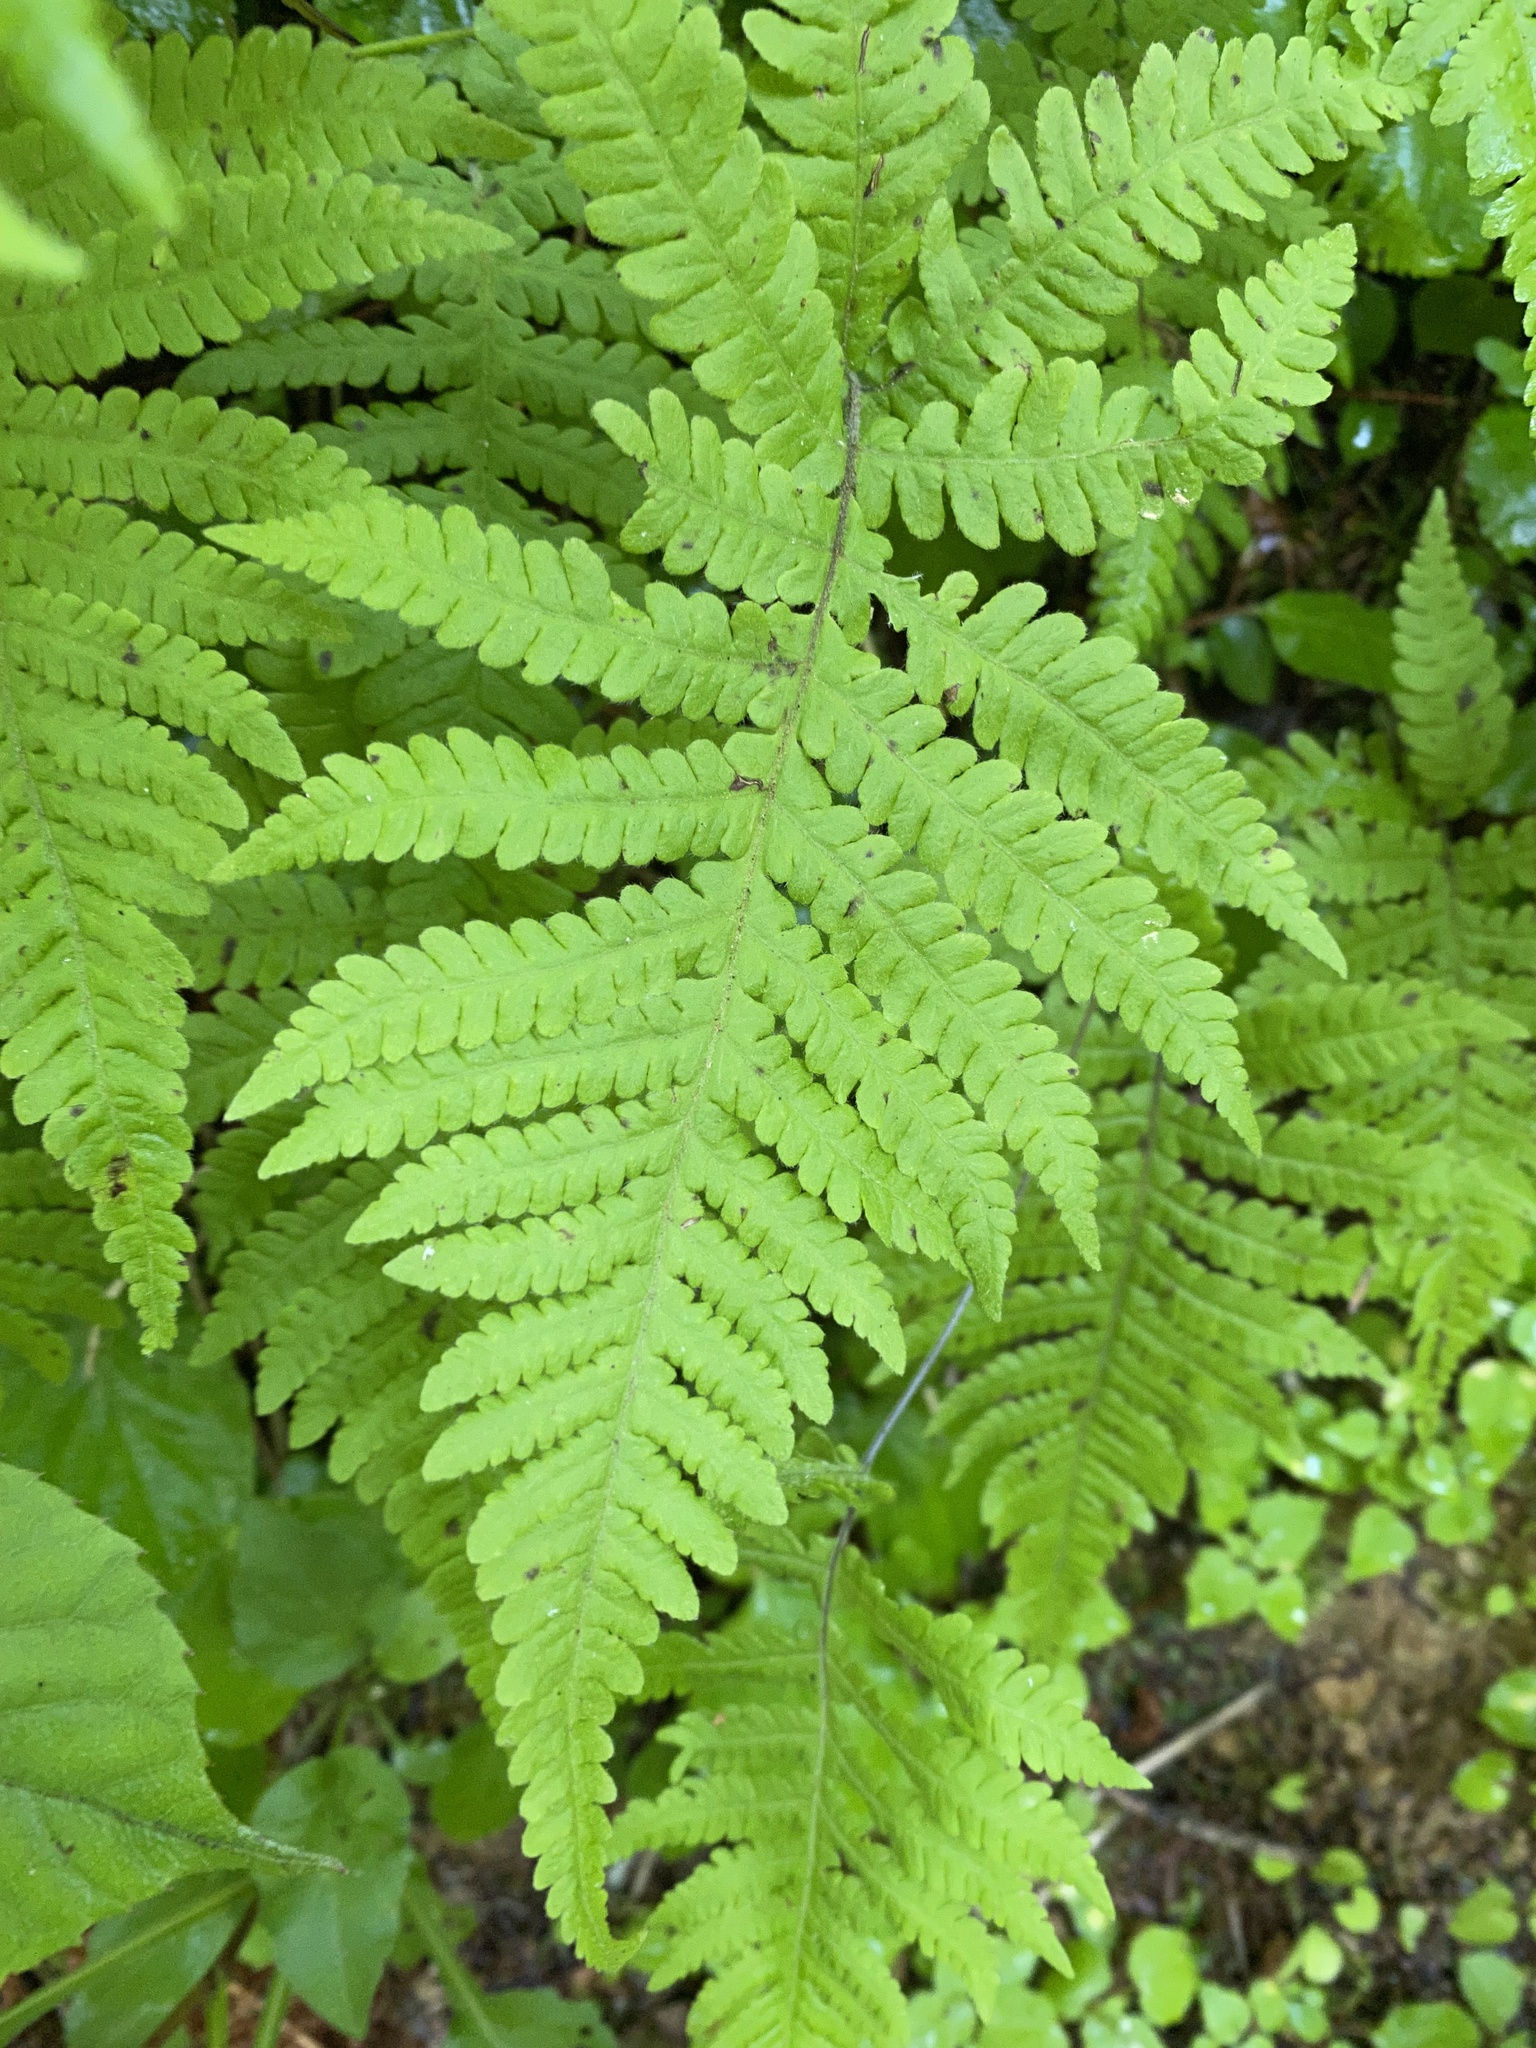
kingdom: Plantae
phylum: Tracheophyta
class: Polypodiopsida
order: Polypodiales
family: Thelypteridaceae
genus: Phegopteris
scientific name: Phegopteris connectilis
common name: Beech fern
